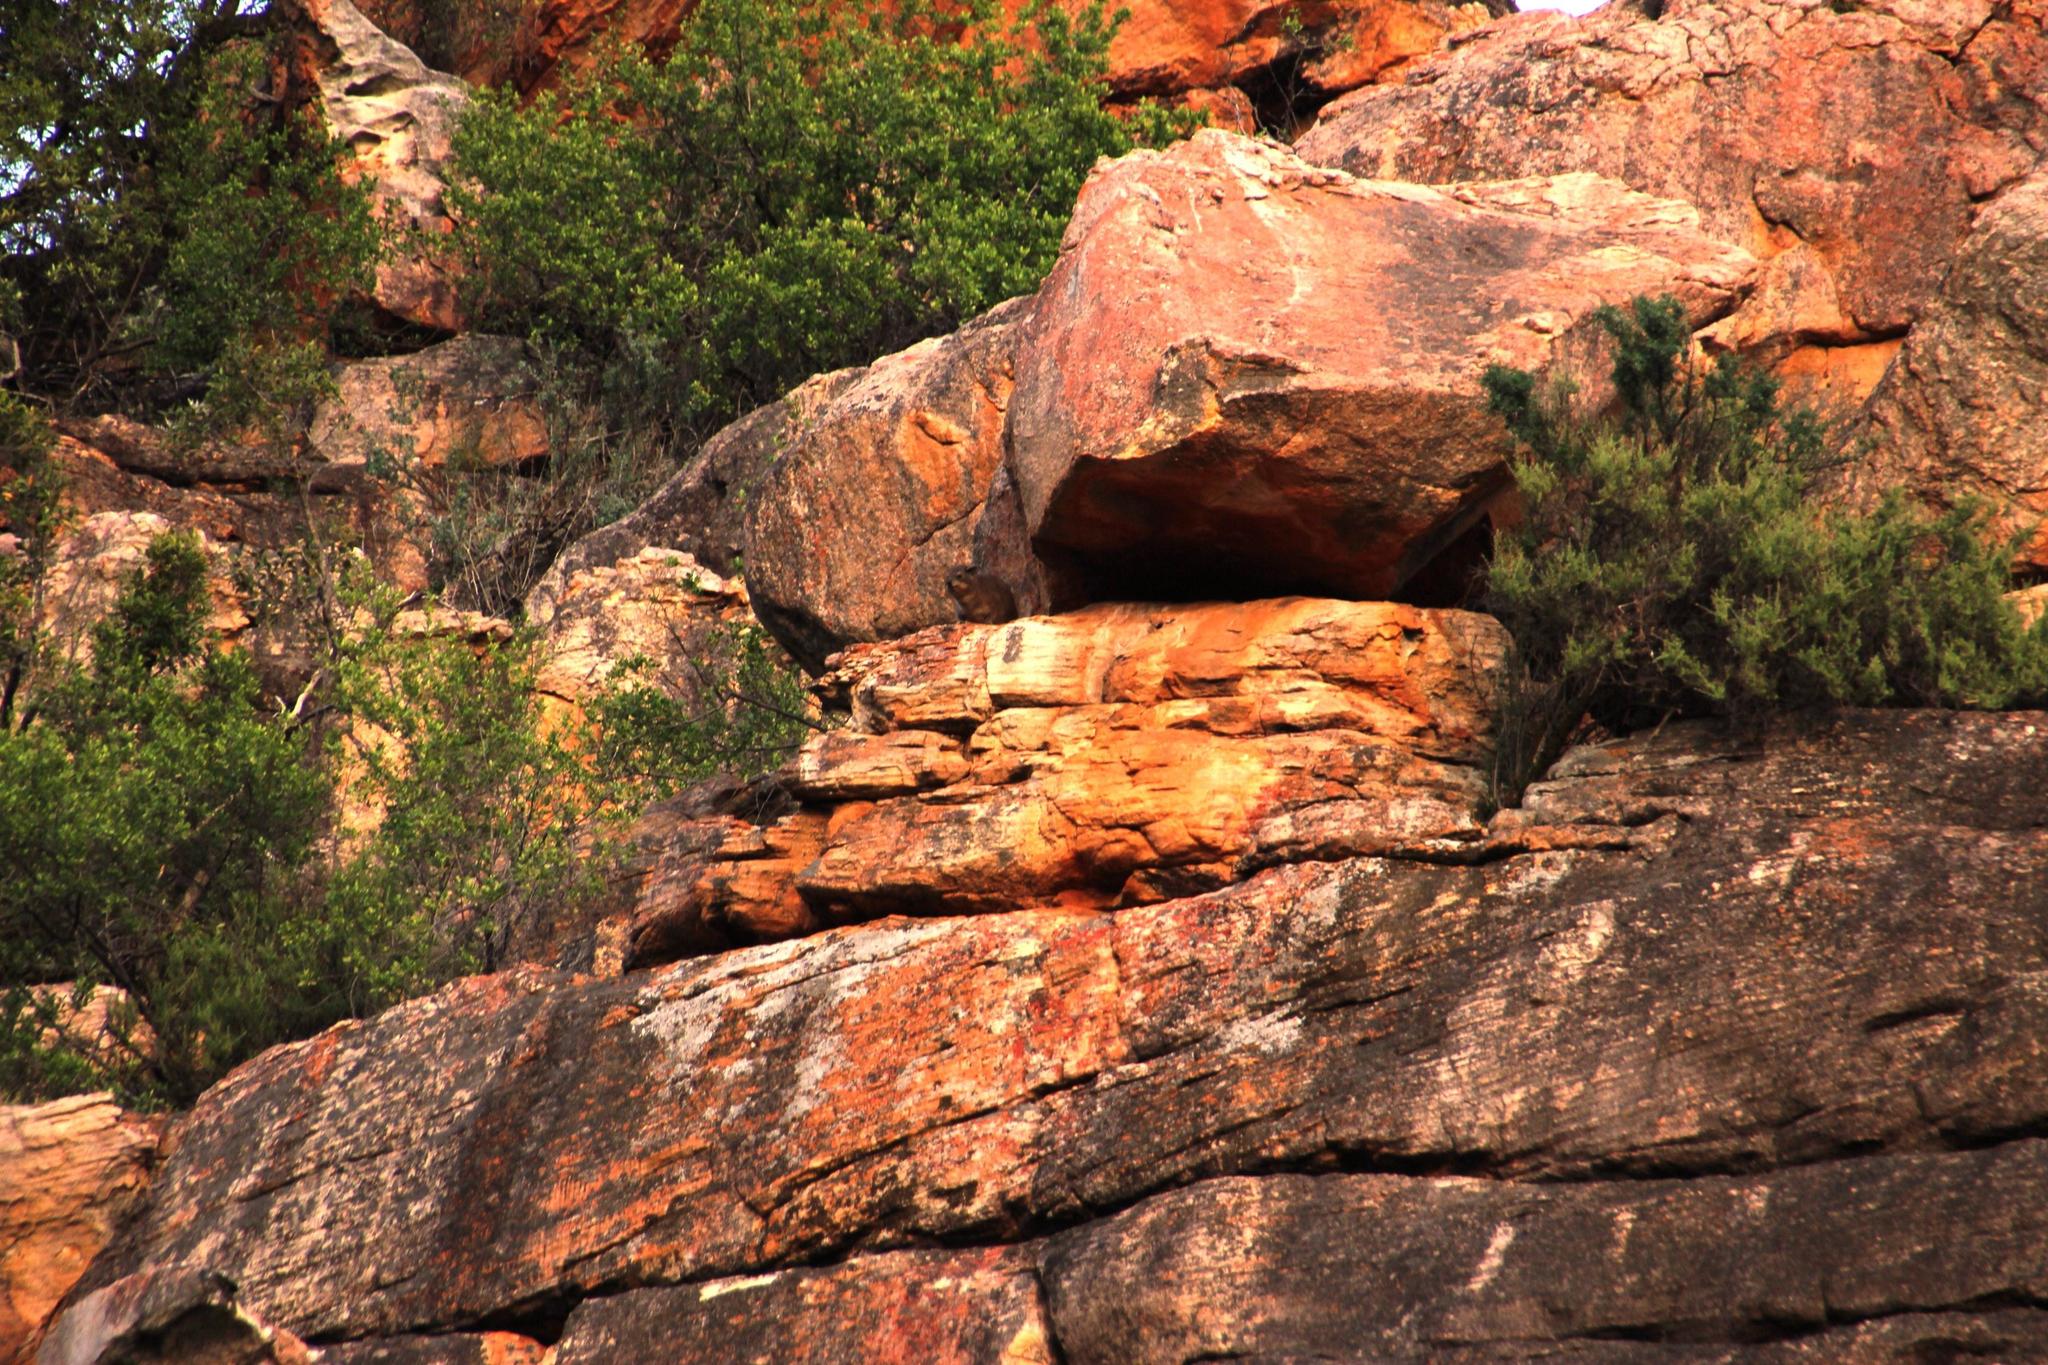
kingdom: Animalia
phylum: Chordata
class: Mammalia
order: Hyracoidea
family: Procaviidae
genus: Procavia
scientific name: Procavia capensis
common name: Rock hyrax
